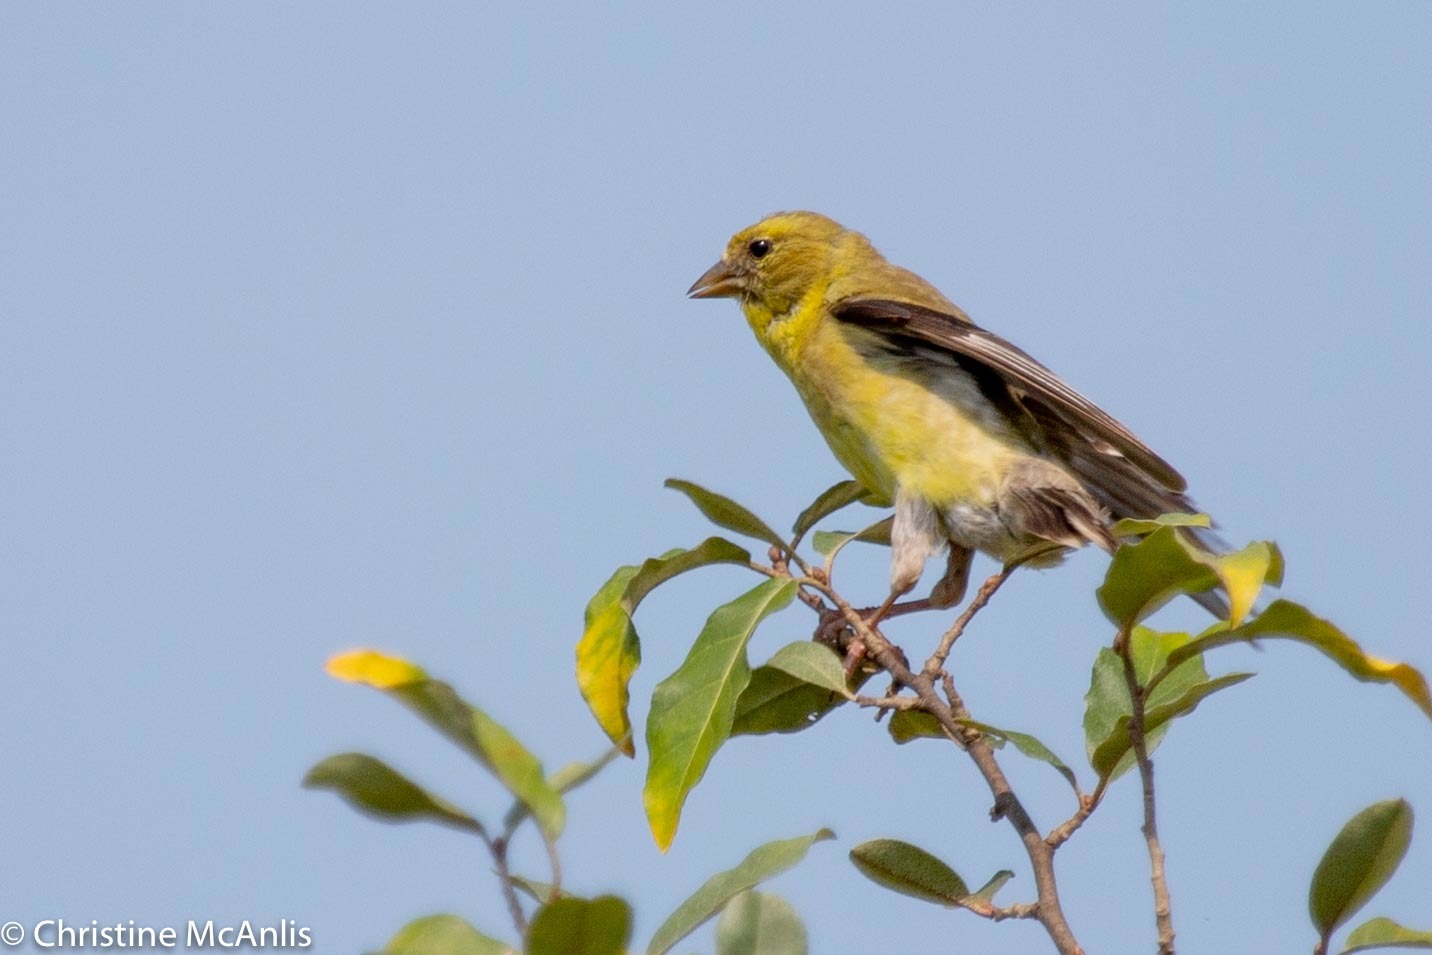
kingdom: Animalia
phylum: Chordata
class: Aves
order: Passeriformes
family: Fringillidae
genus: Spinus
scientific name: Spinus tristis
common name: American goldfinch
